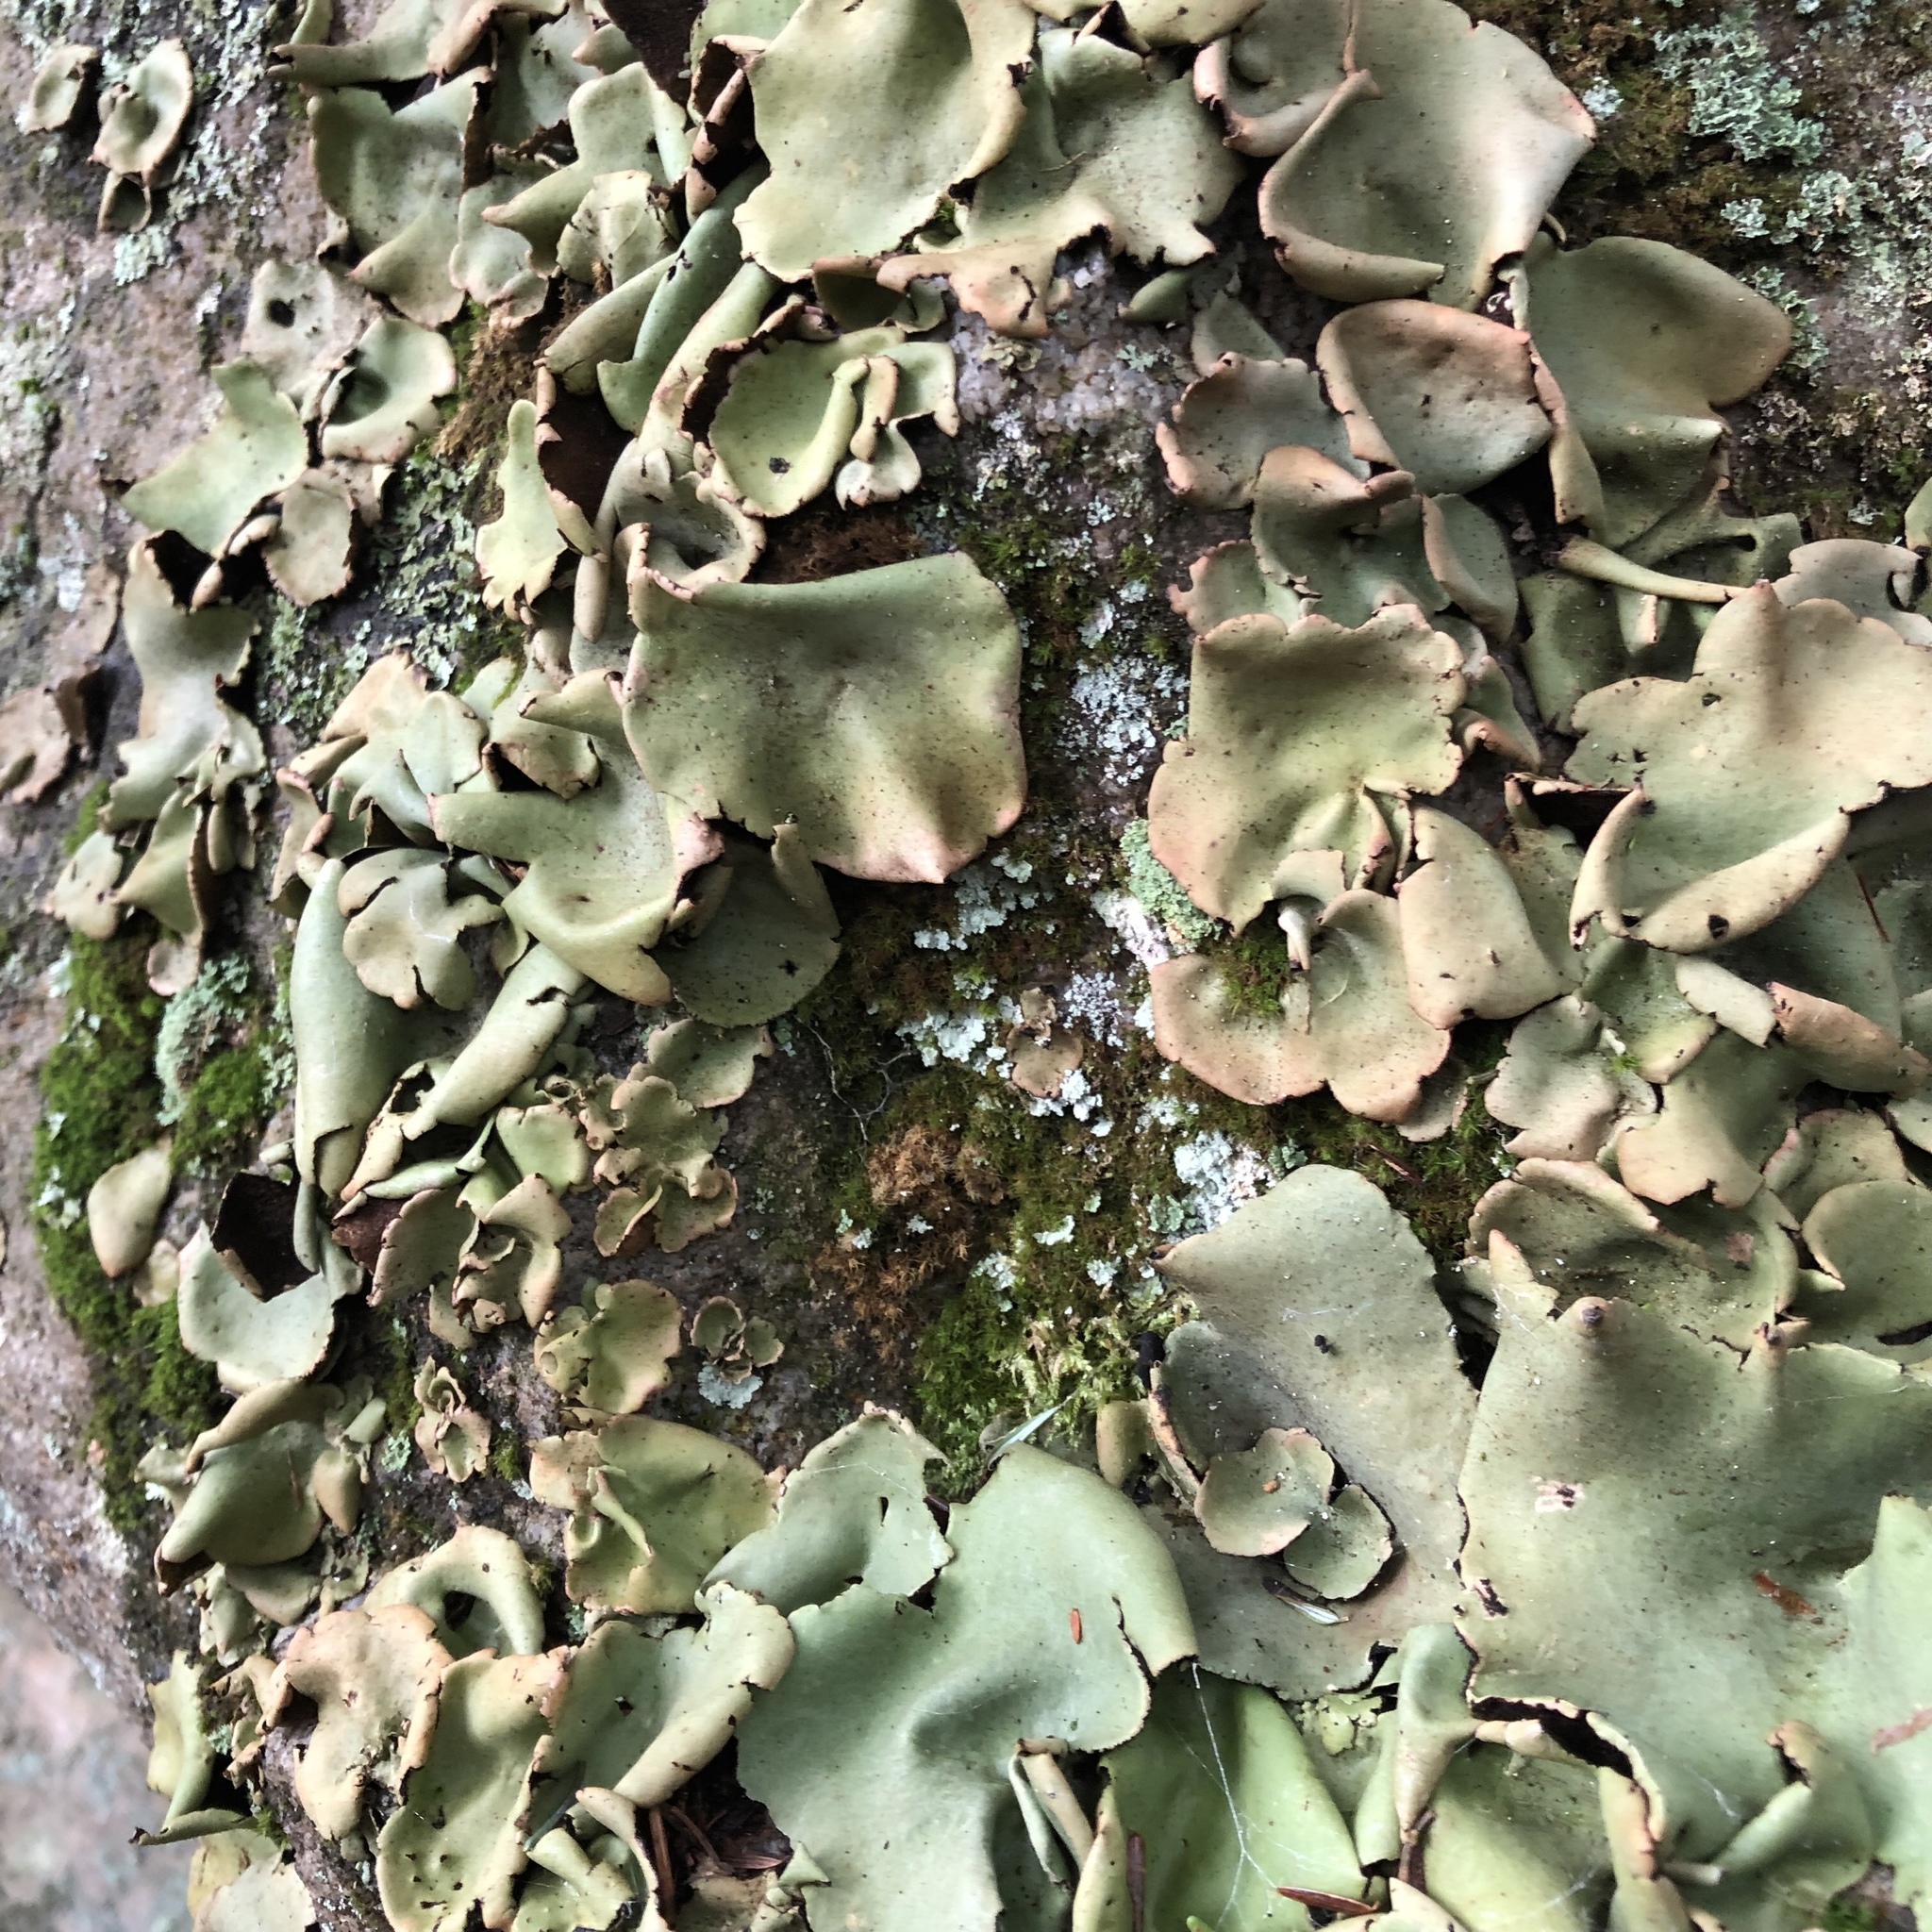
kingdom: Fungi
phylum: Ascomycota
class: Lecanoromycetes
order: Umbilicariales
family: Umbilicariaceae
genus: Umbilicaria
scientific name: Umbilicaria mammulata
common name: Smooth rock tripe
